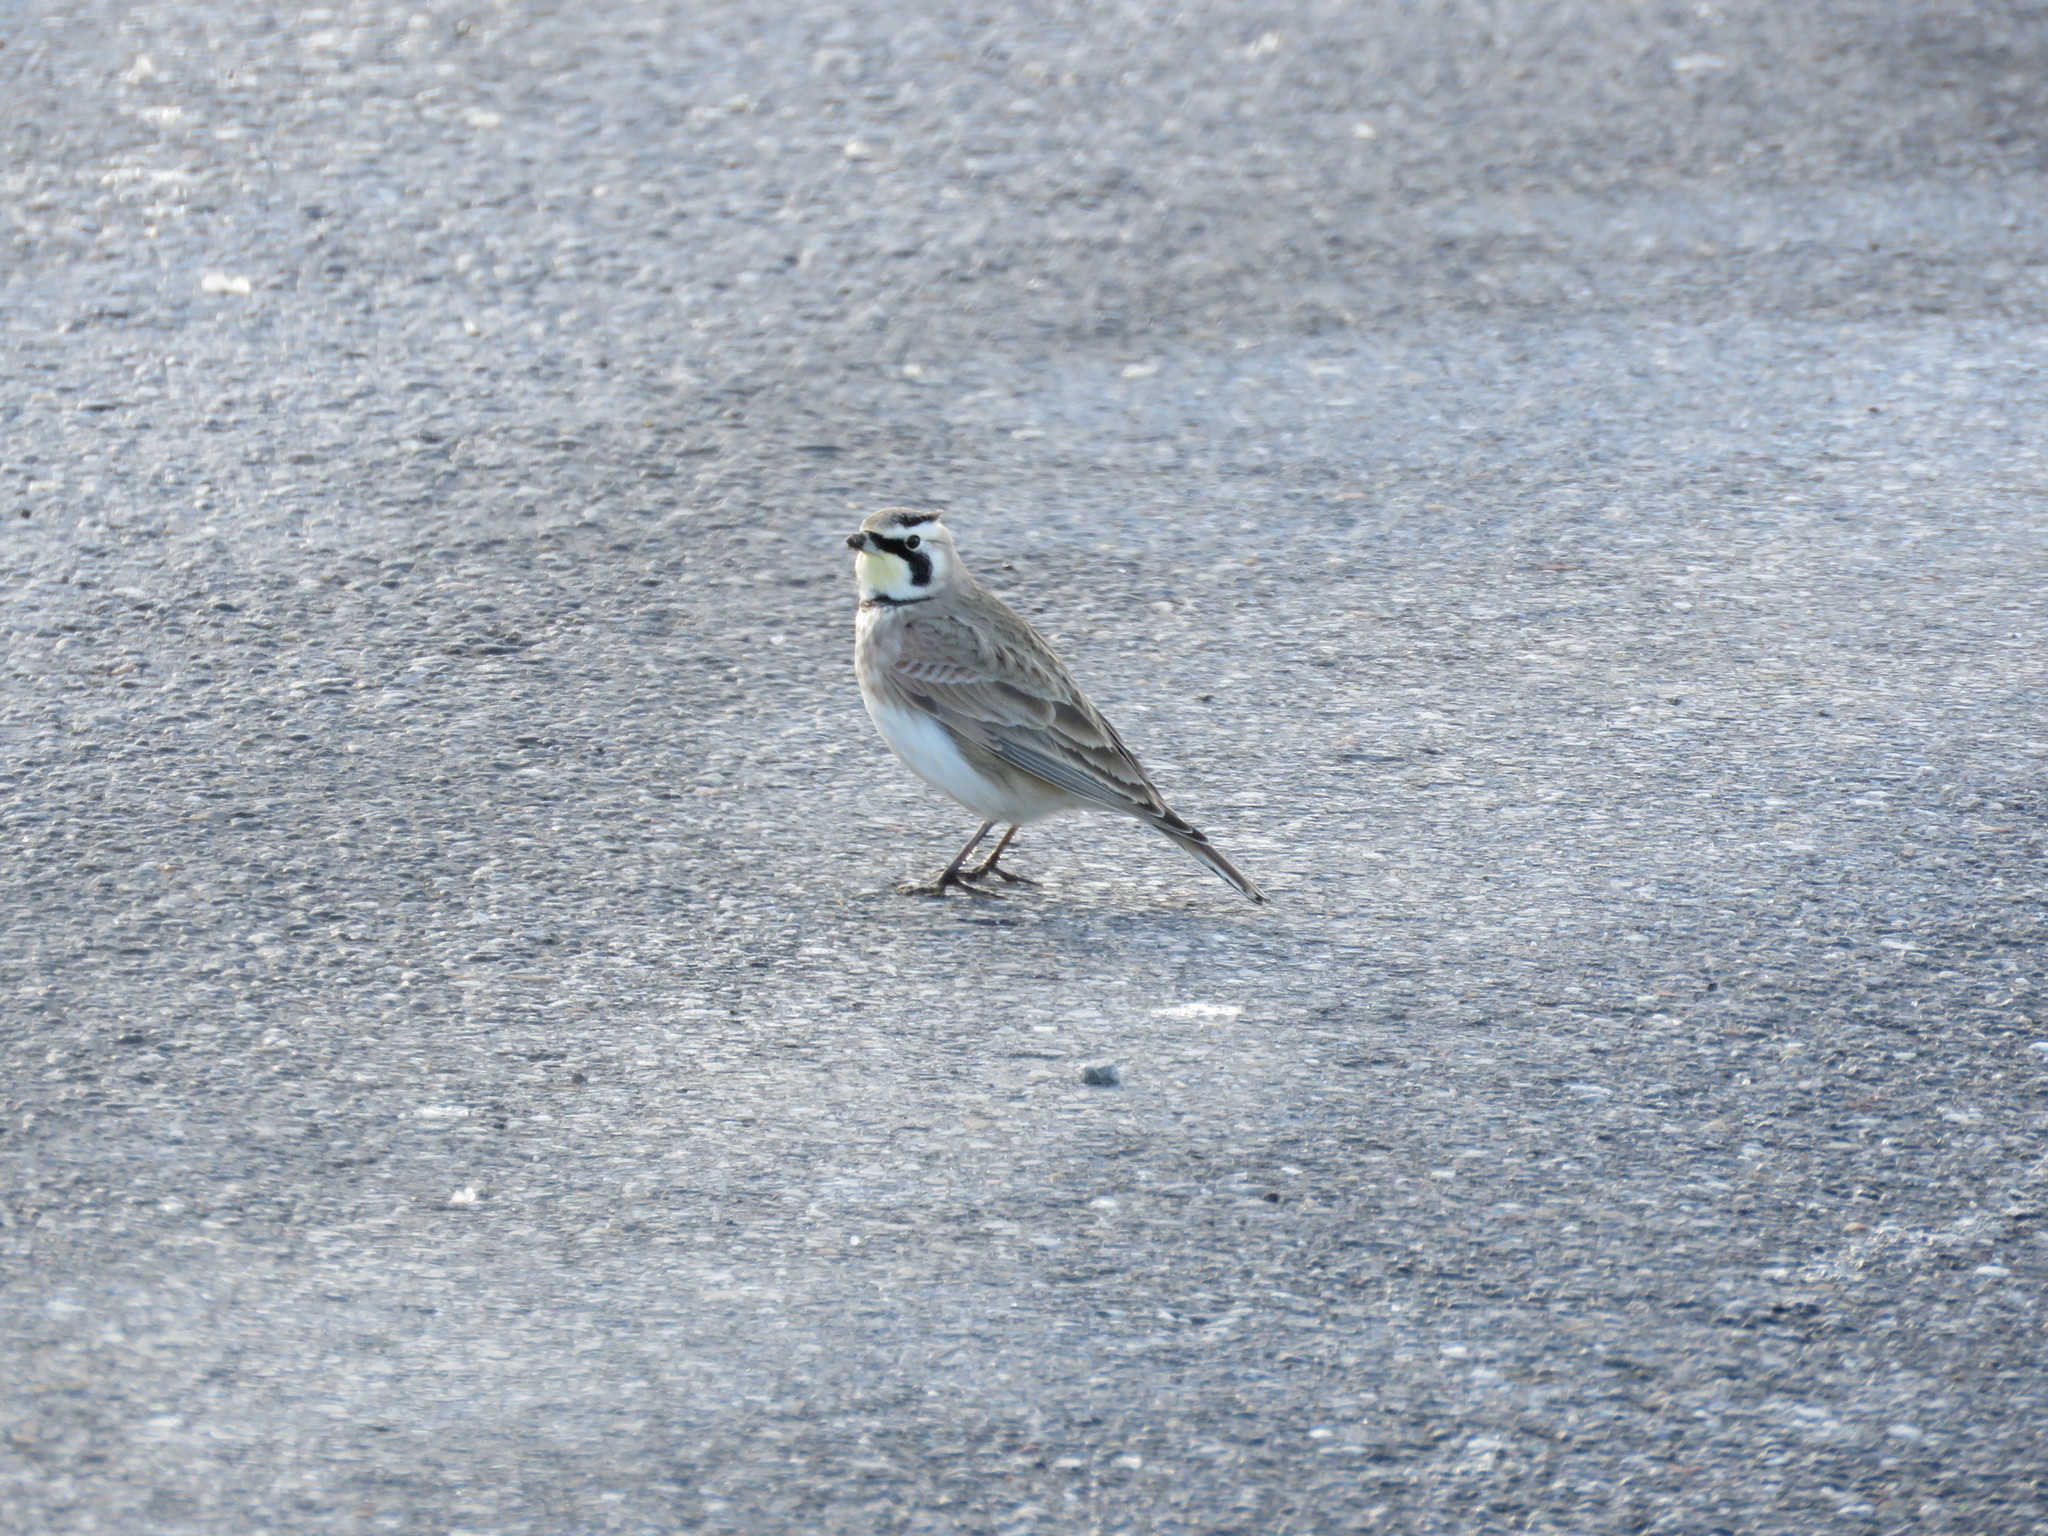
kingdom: Animalia
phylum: Chordata
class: Aves
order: Passeriformes
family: Alaudidae
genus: Eremophila
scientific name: Eremophila alpestris
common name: Horned lark
